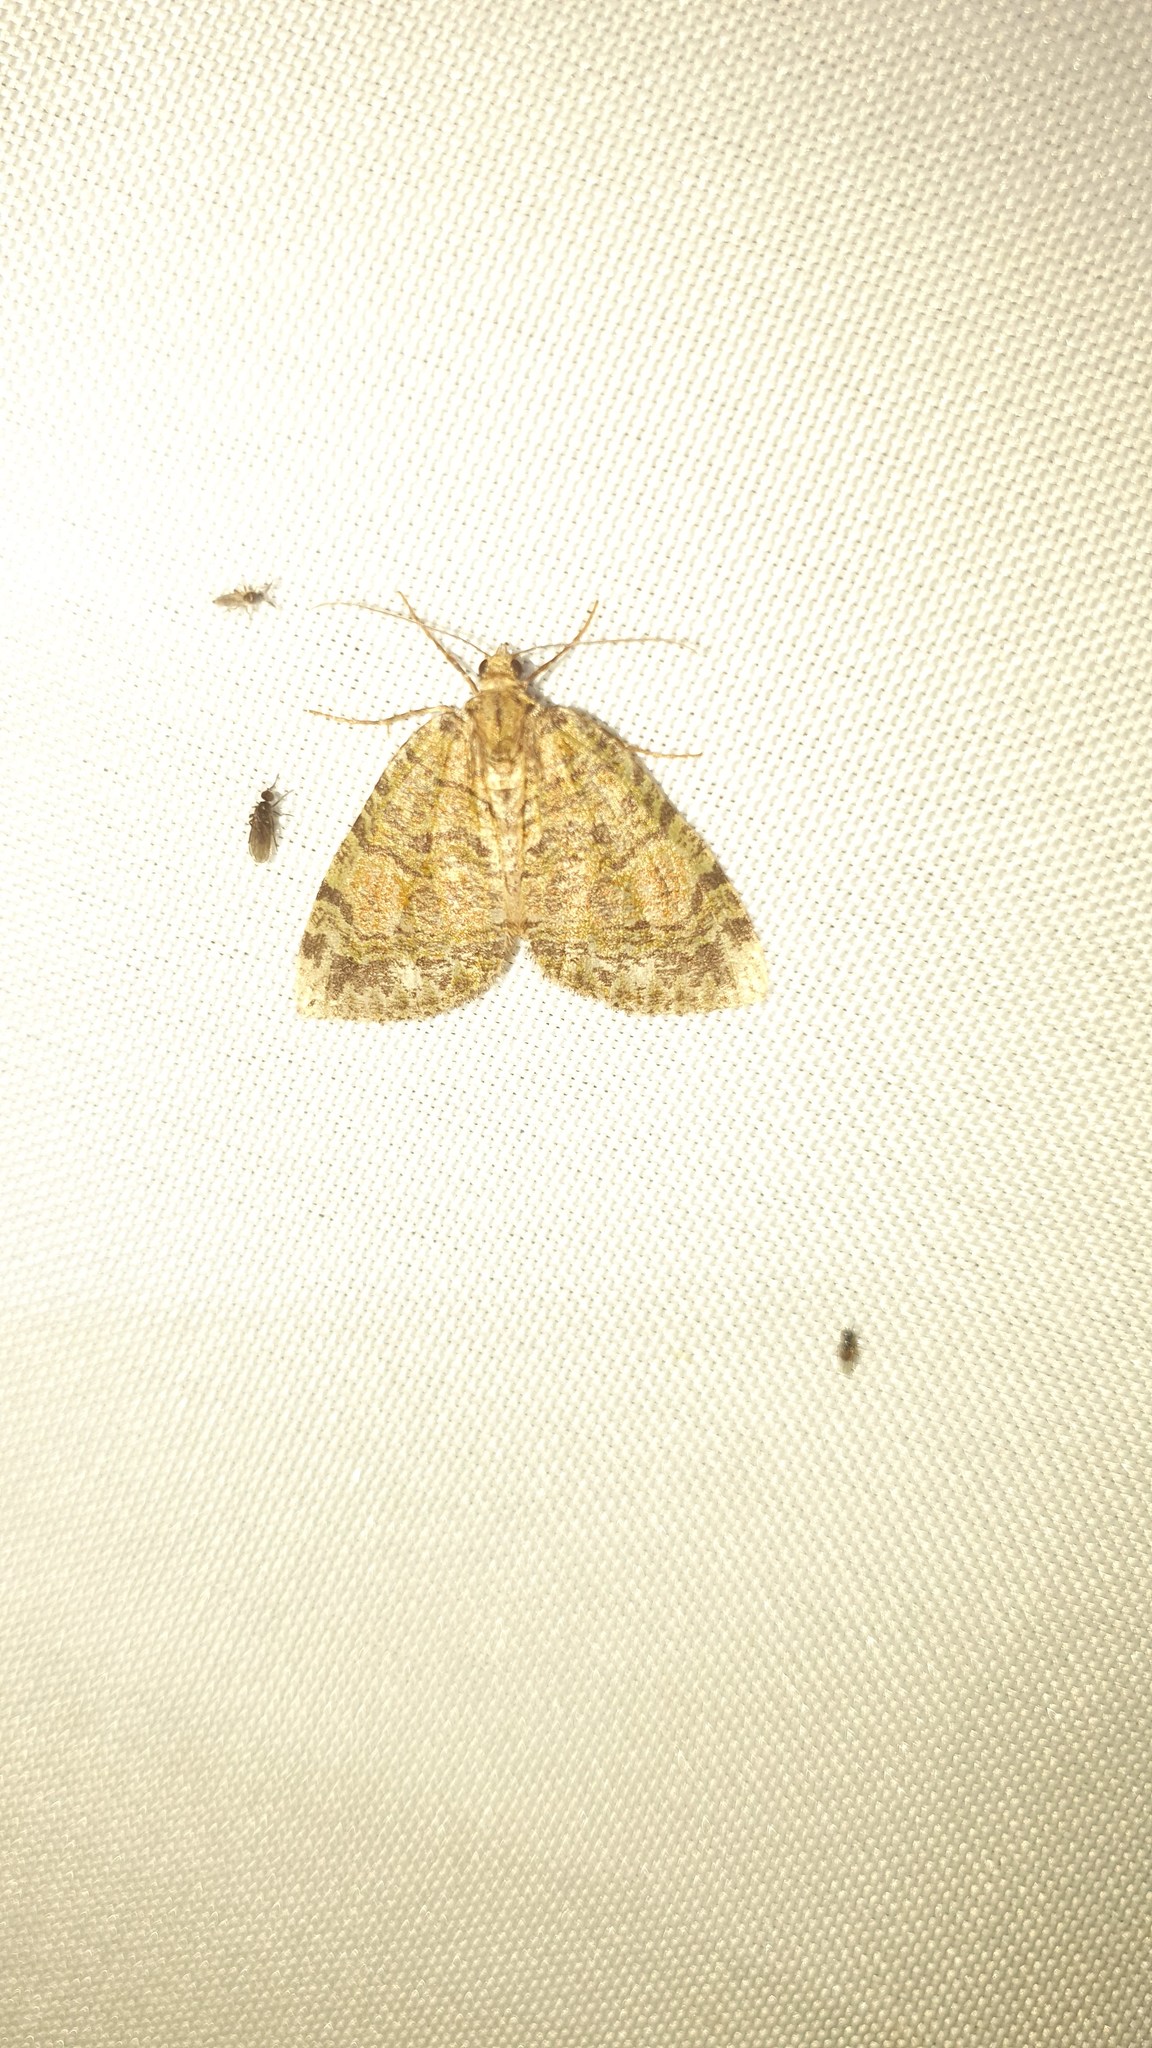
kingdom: Animalia
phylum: Arthropoda
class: Insecta
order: Lepidoptera
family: Geometridae
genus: Hydriomena
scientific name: Hydriomena furcata
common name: July highflyer
